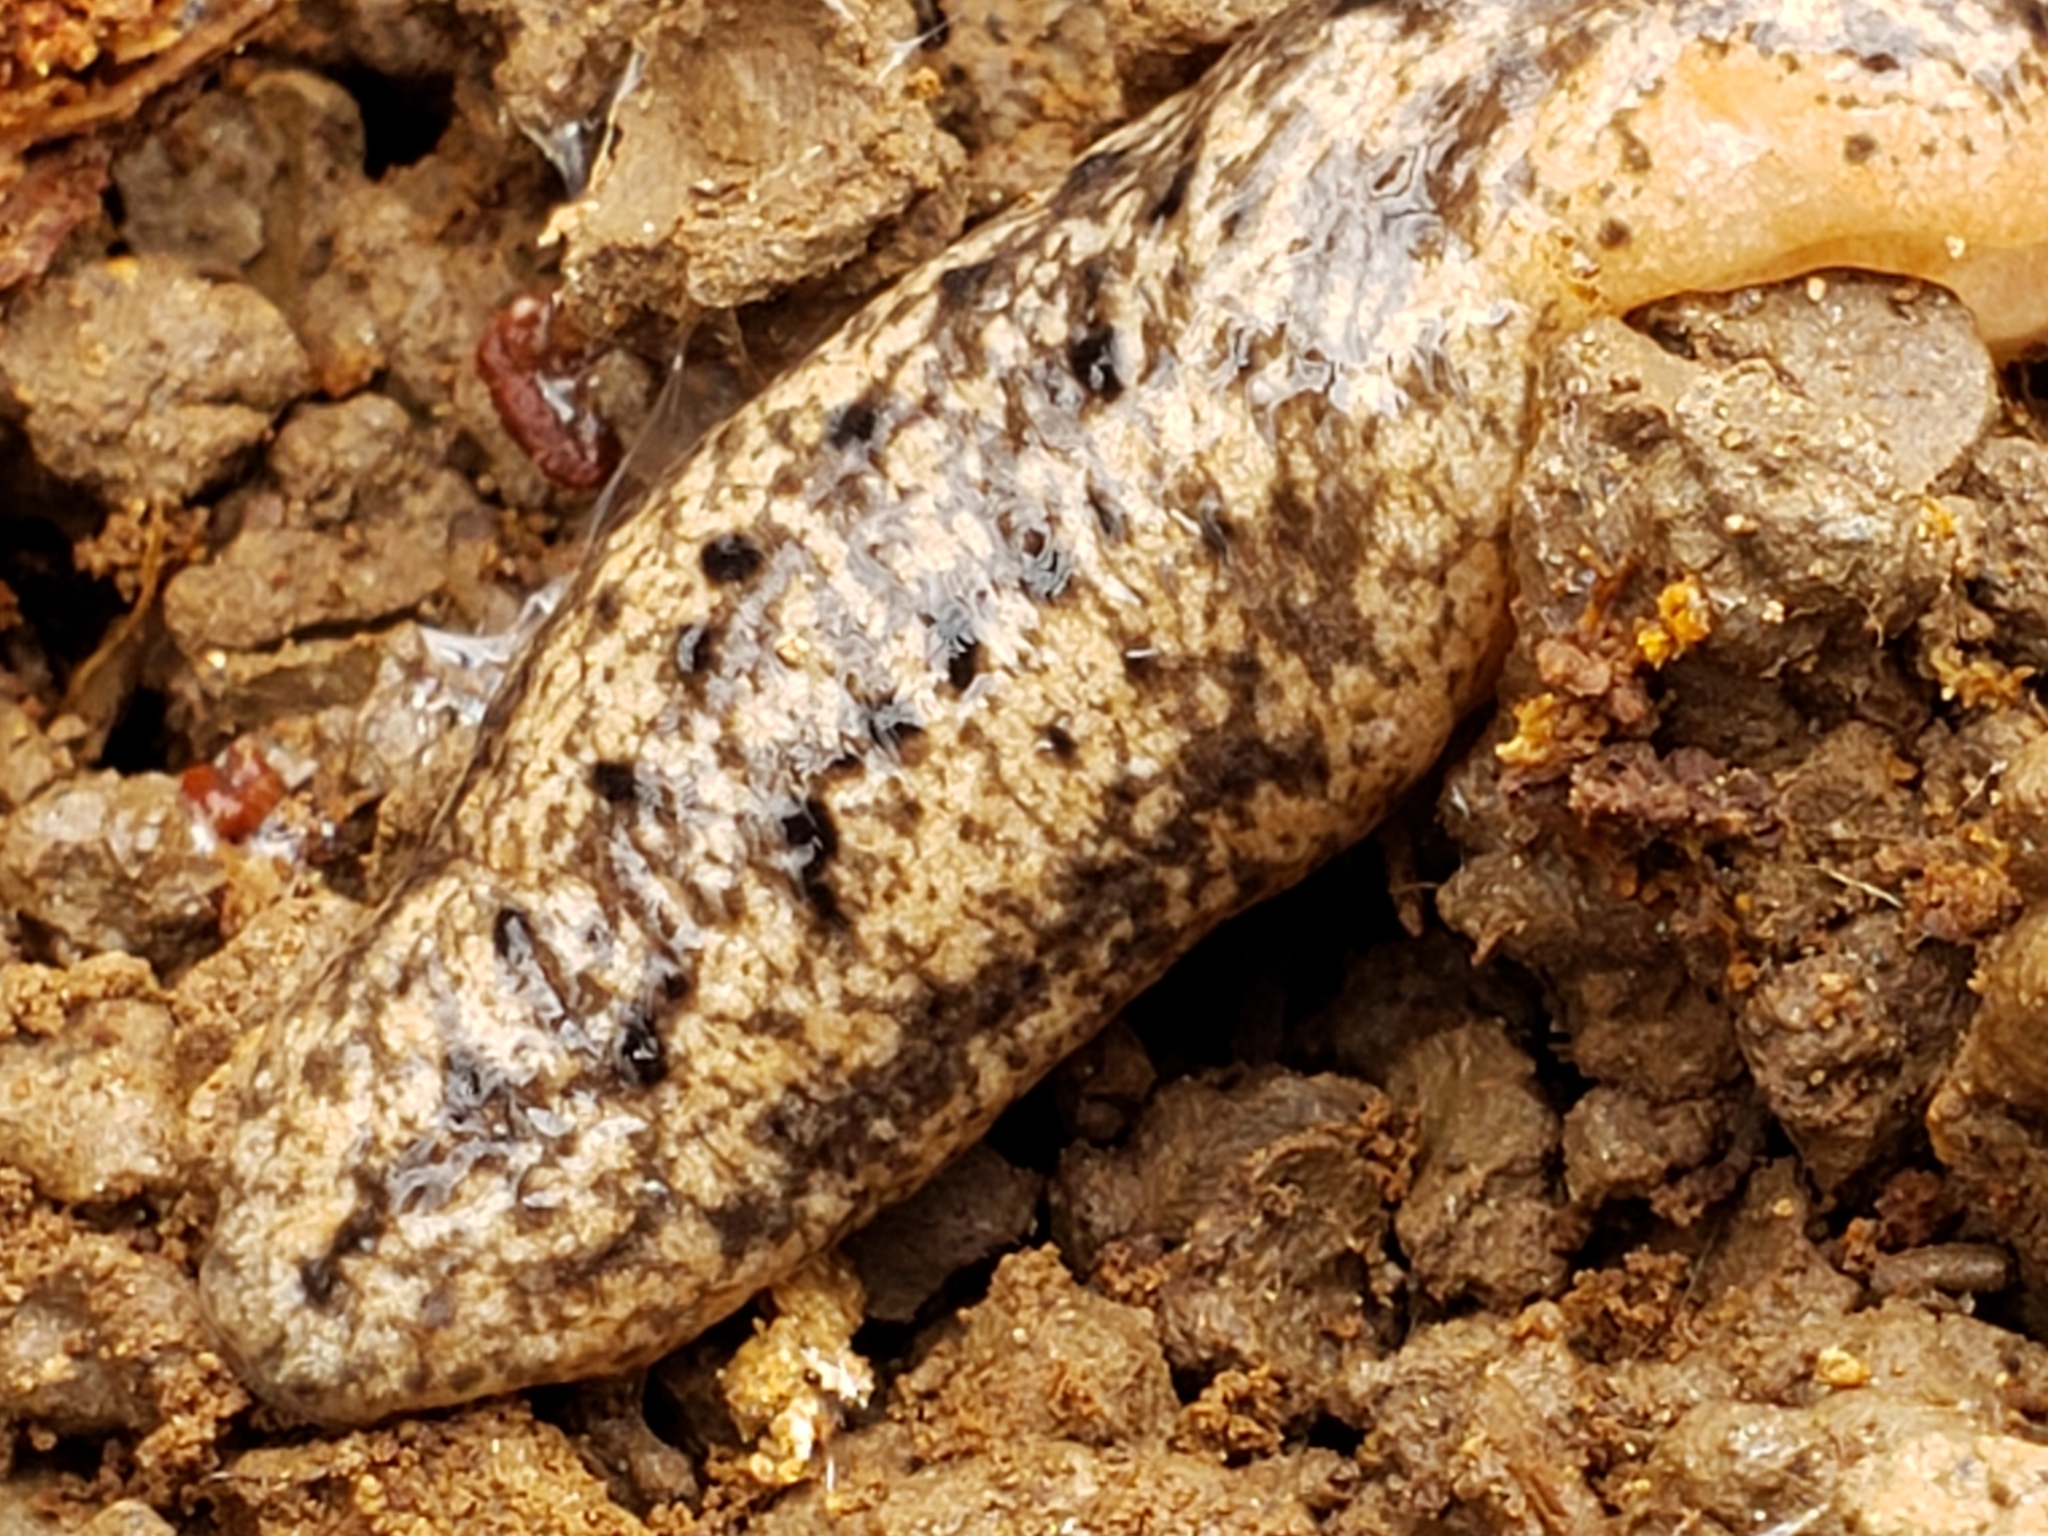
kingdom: Animalia
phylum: Mollusca
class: Gastropoda
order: Stylommatophora
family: Philomycidae
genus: Philomycus
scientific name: Philomycus carolinianus
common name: Carolina mantleslug
